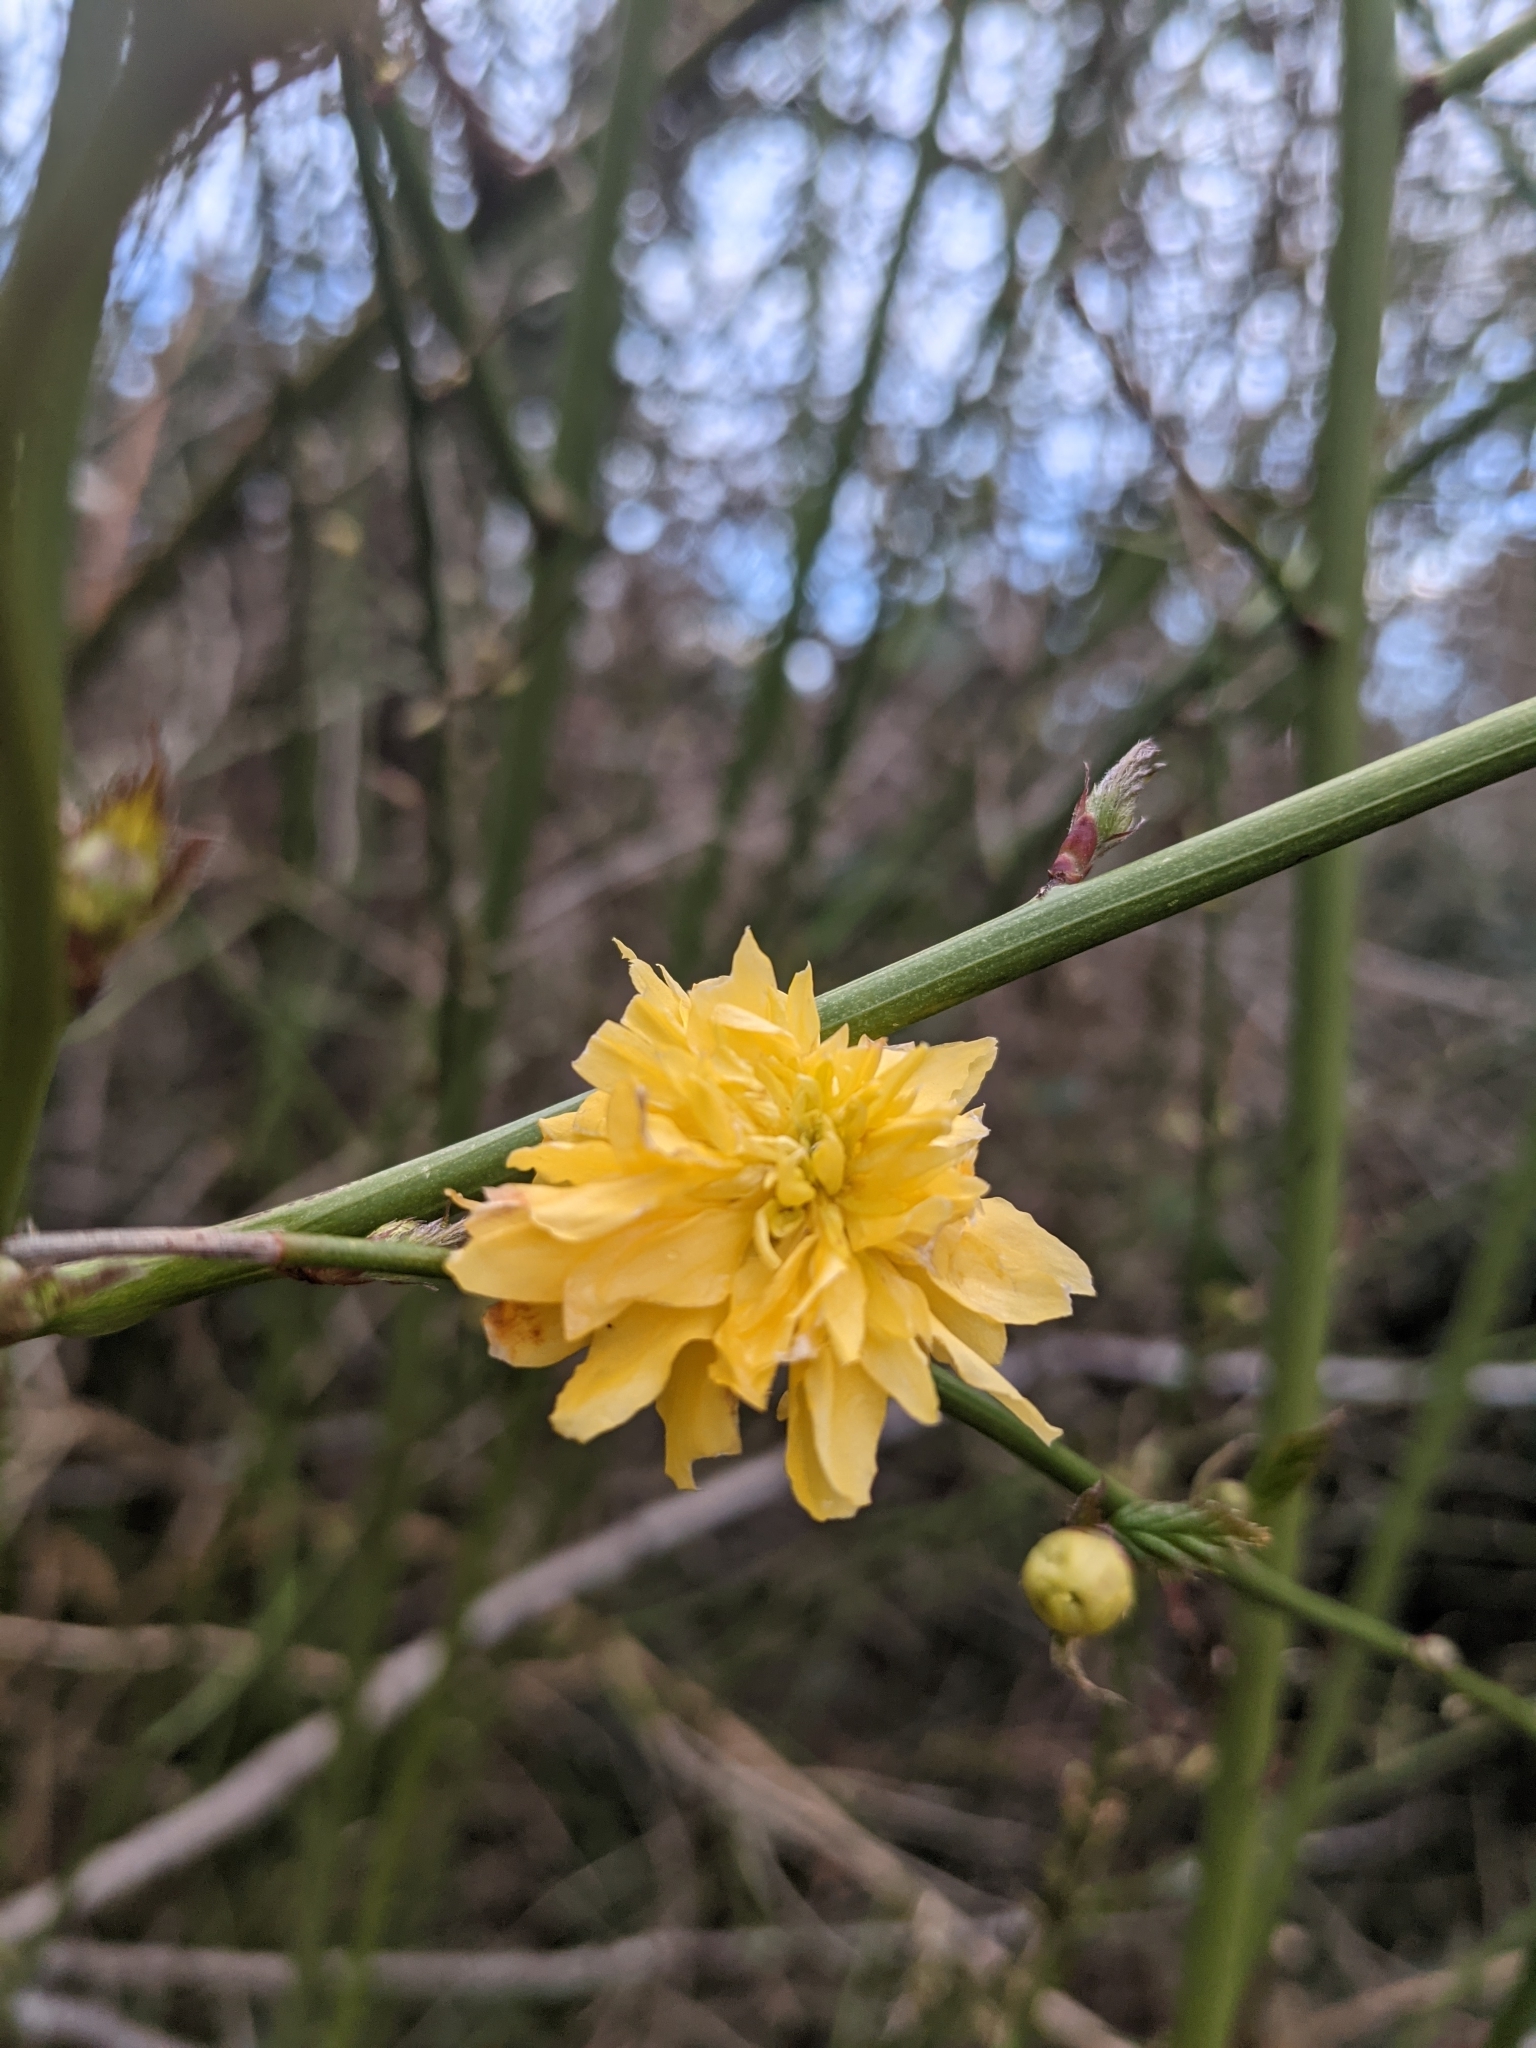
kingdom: Plantae
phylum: Tracheophyta
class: Magnoliopsida
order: Rosales
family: Rosaceae
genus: Kerria
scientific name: Kerria japonica
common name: Japanese kerria
